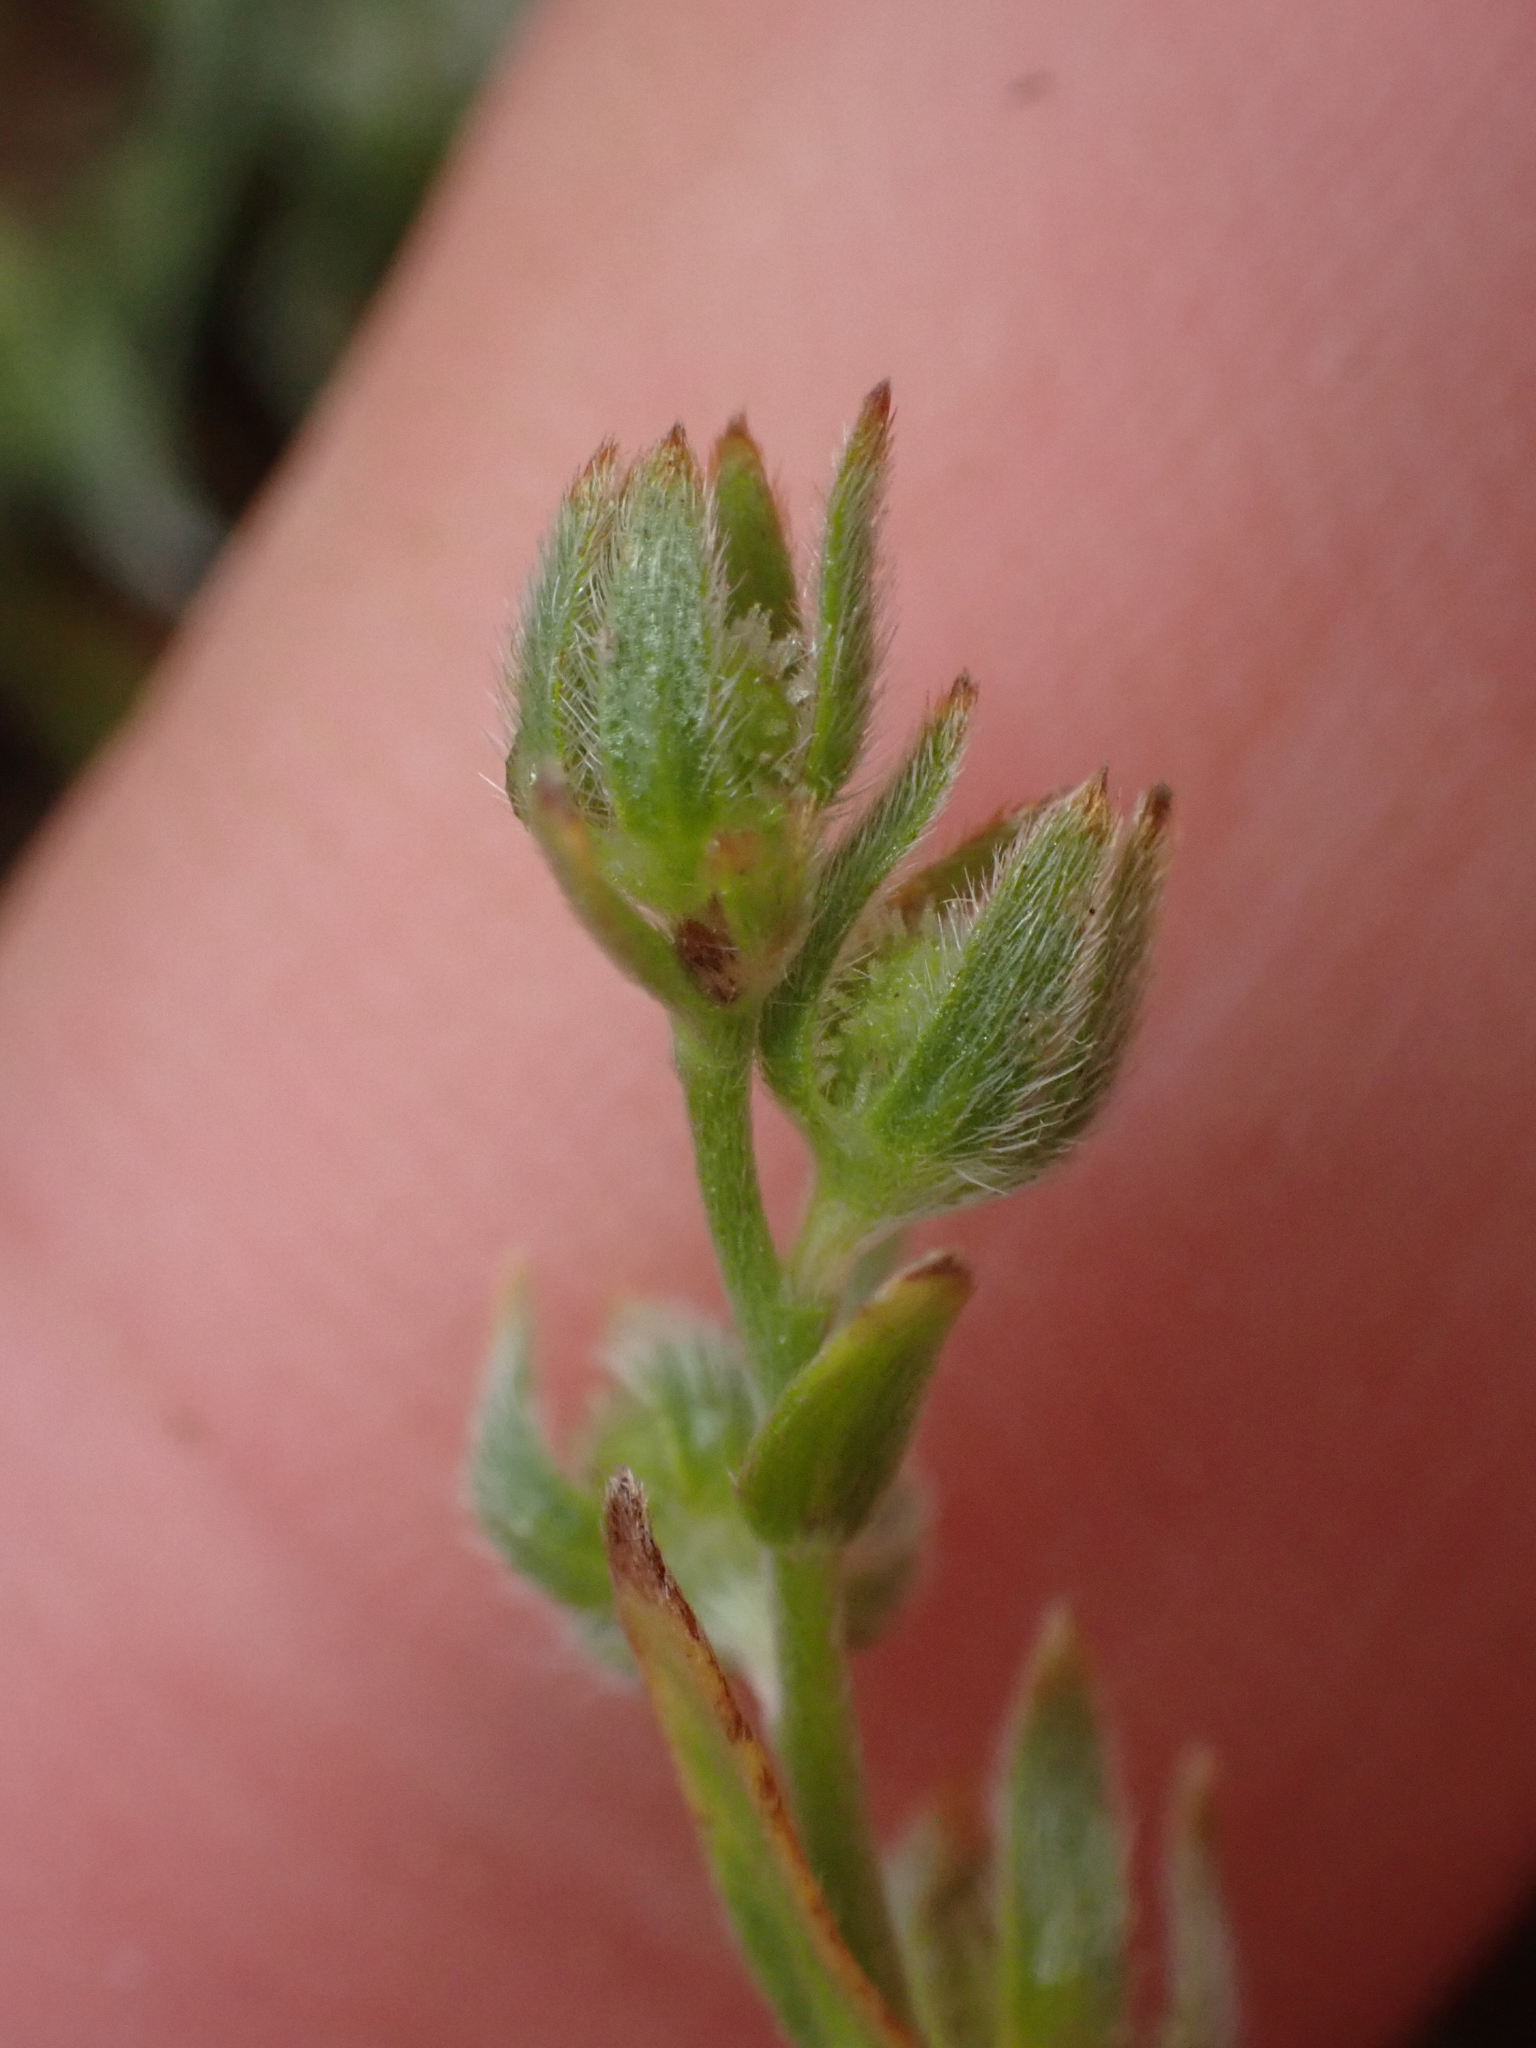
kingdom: Plantae
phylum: Tracheophyta
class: Magnoliopsida
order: Boraginales
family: Boraginaceae
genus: Plagiobothrys
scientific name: Plagiobothrys hystriculus
